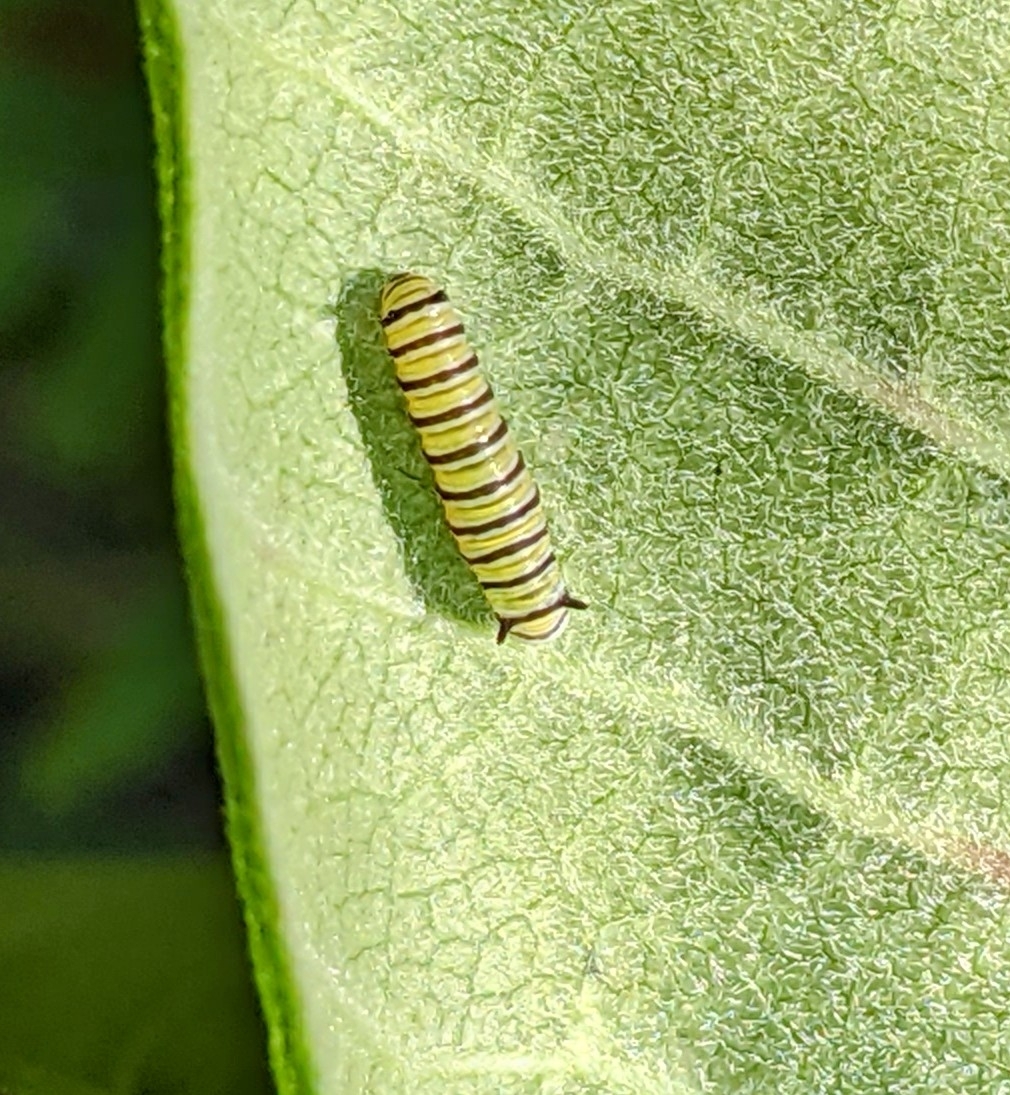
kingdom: Animalia
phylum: Arthropoda
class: Insecta
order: Lepidoptera
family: Nymphalidae
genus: Danaus
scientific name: Danaus plexippus
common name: Monarch
